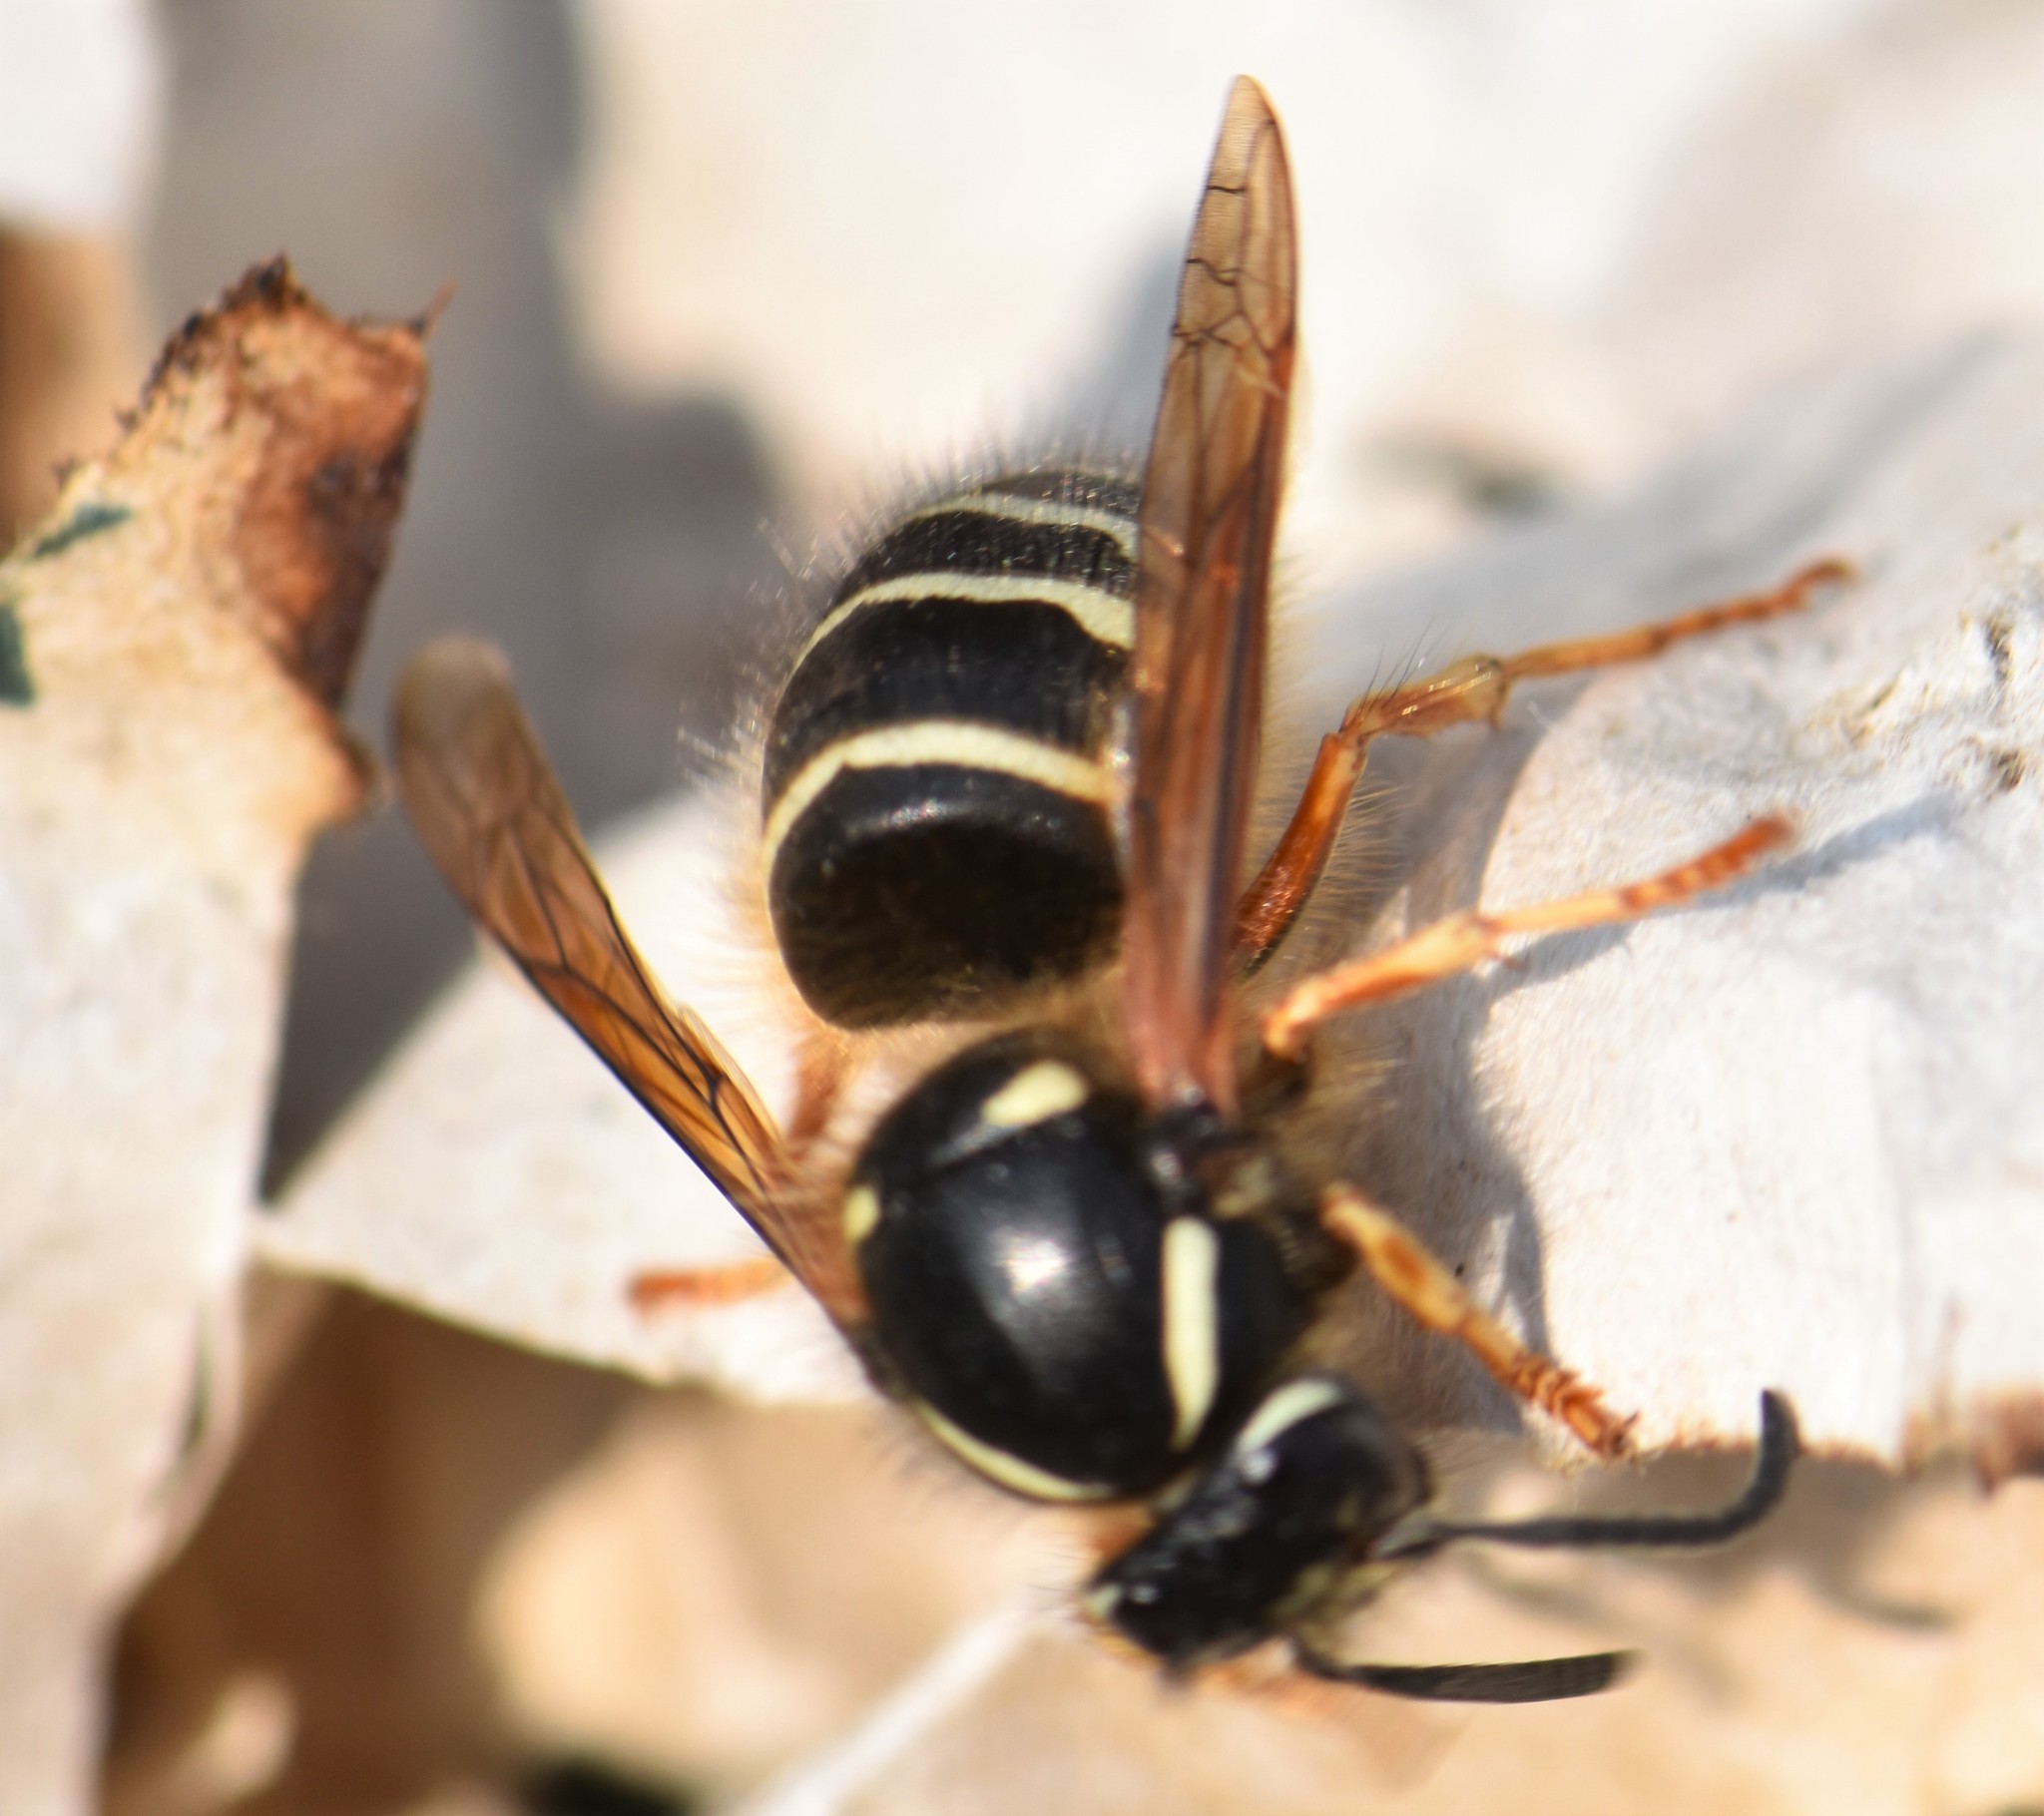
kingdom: Animalia
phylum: Arthropoda
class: Insecta
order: Hymenoptera
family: Vespidae
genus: Dolichovespula
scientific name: Dolichovespula norwegica
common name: Norwegian wasp
